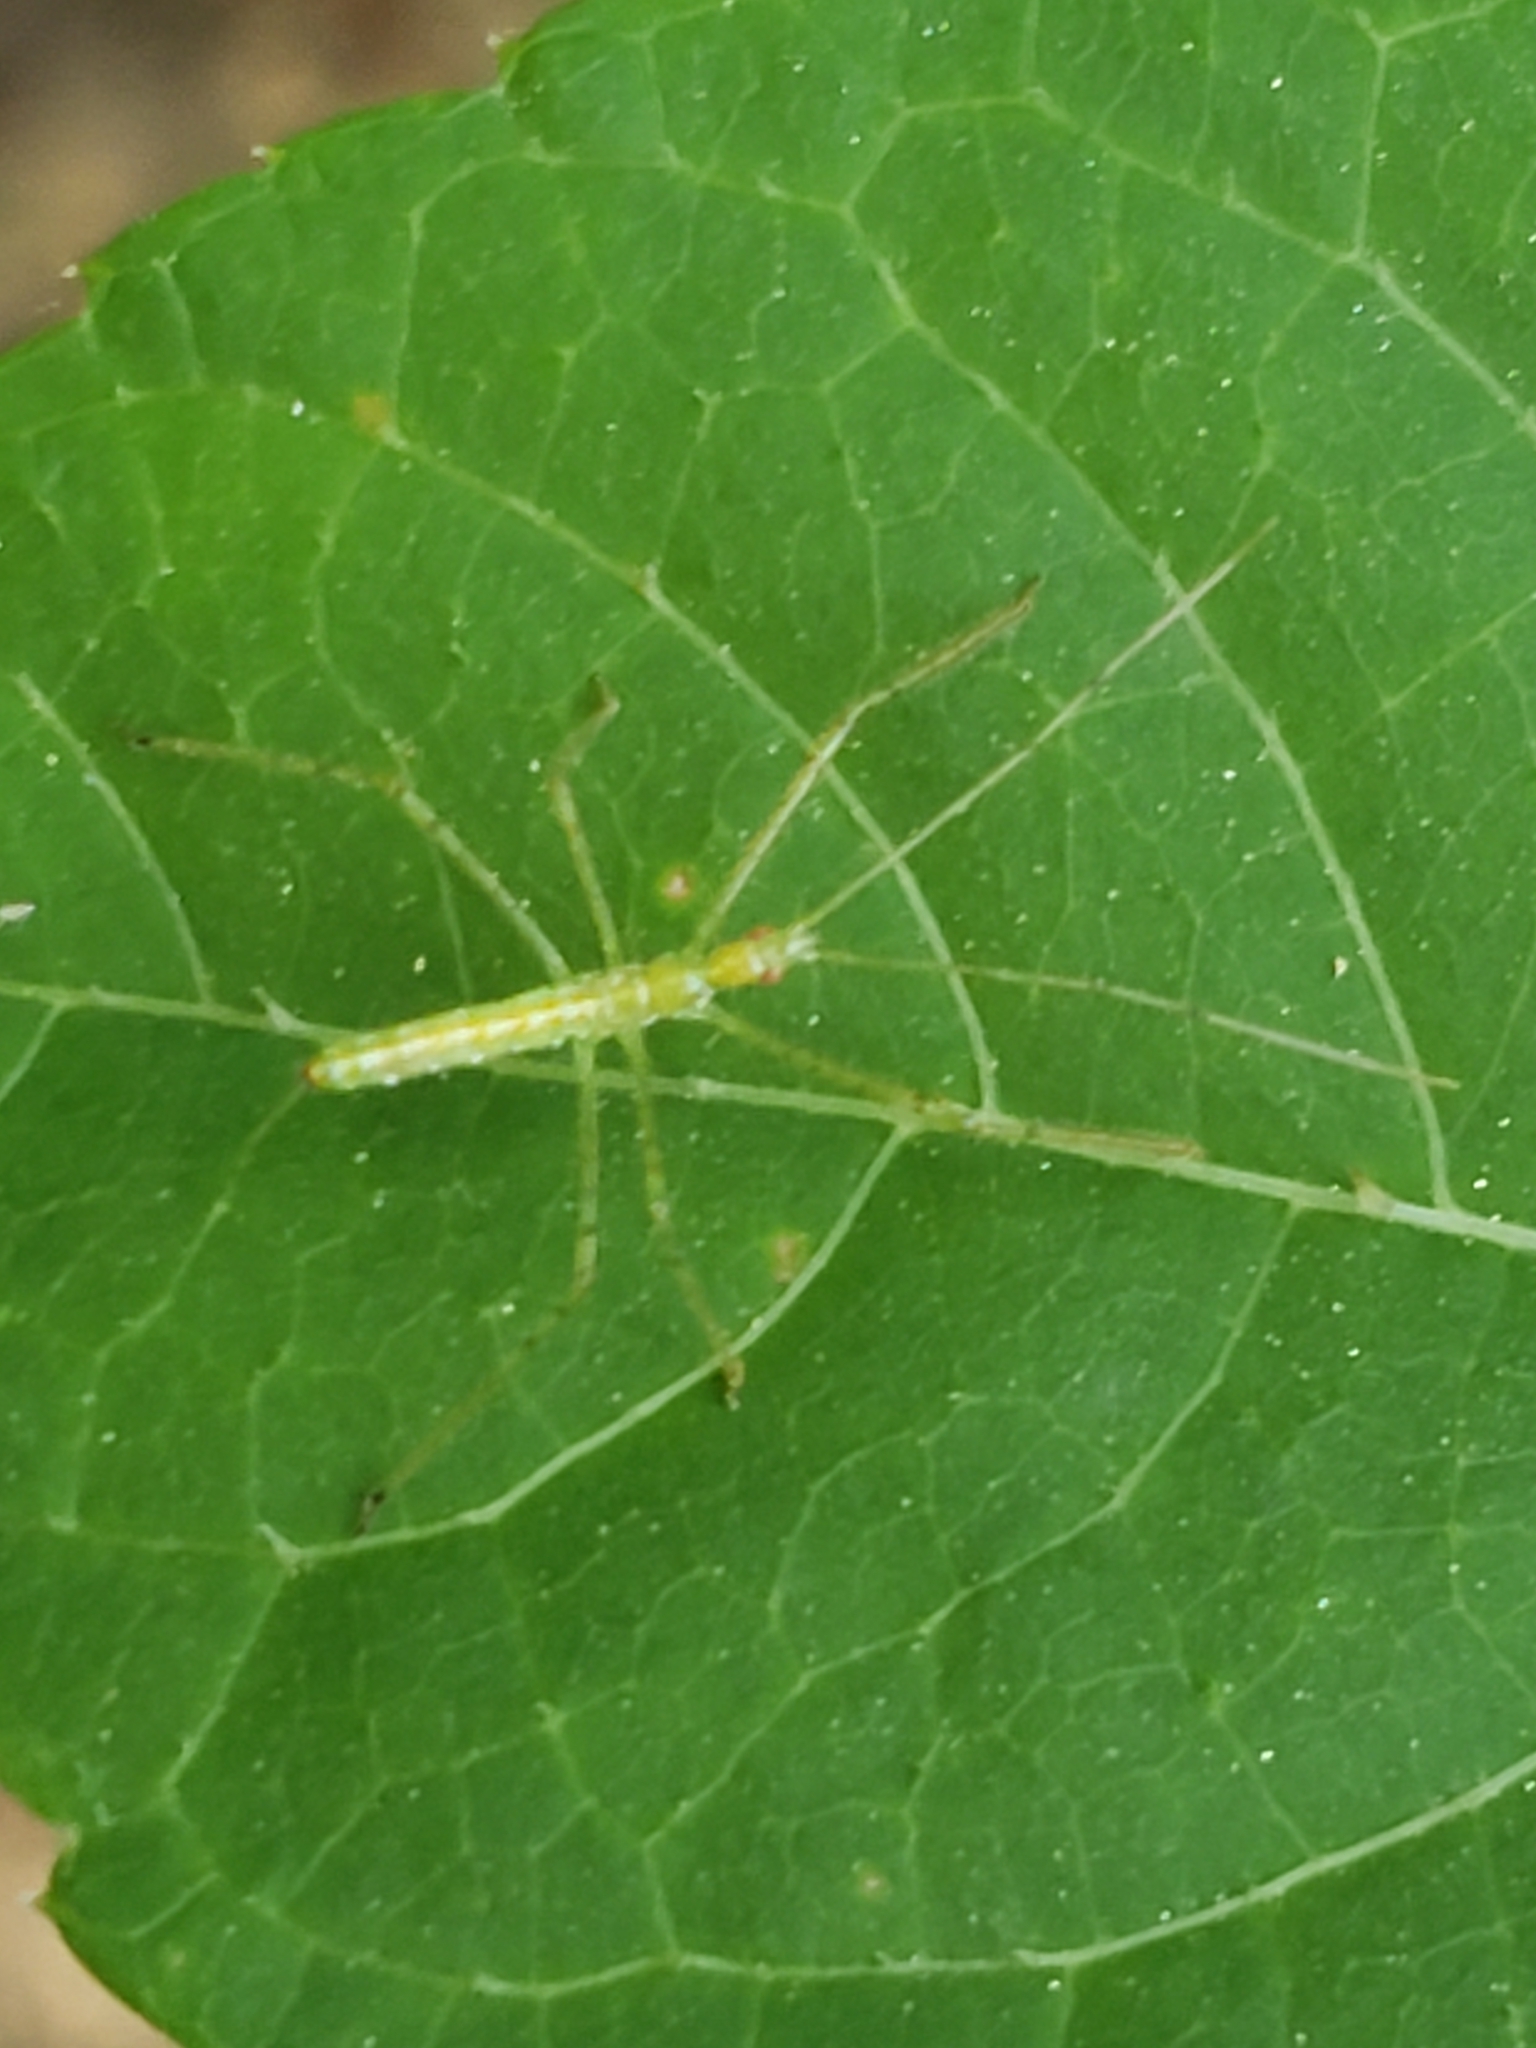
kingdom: Animalia
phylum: Arthropoda
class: Insecta
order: Hemiptera
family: Reduviidae
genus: Zelus
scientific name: Zelus luridus
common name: Pale green assassin bug
